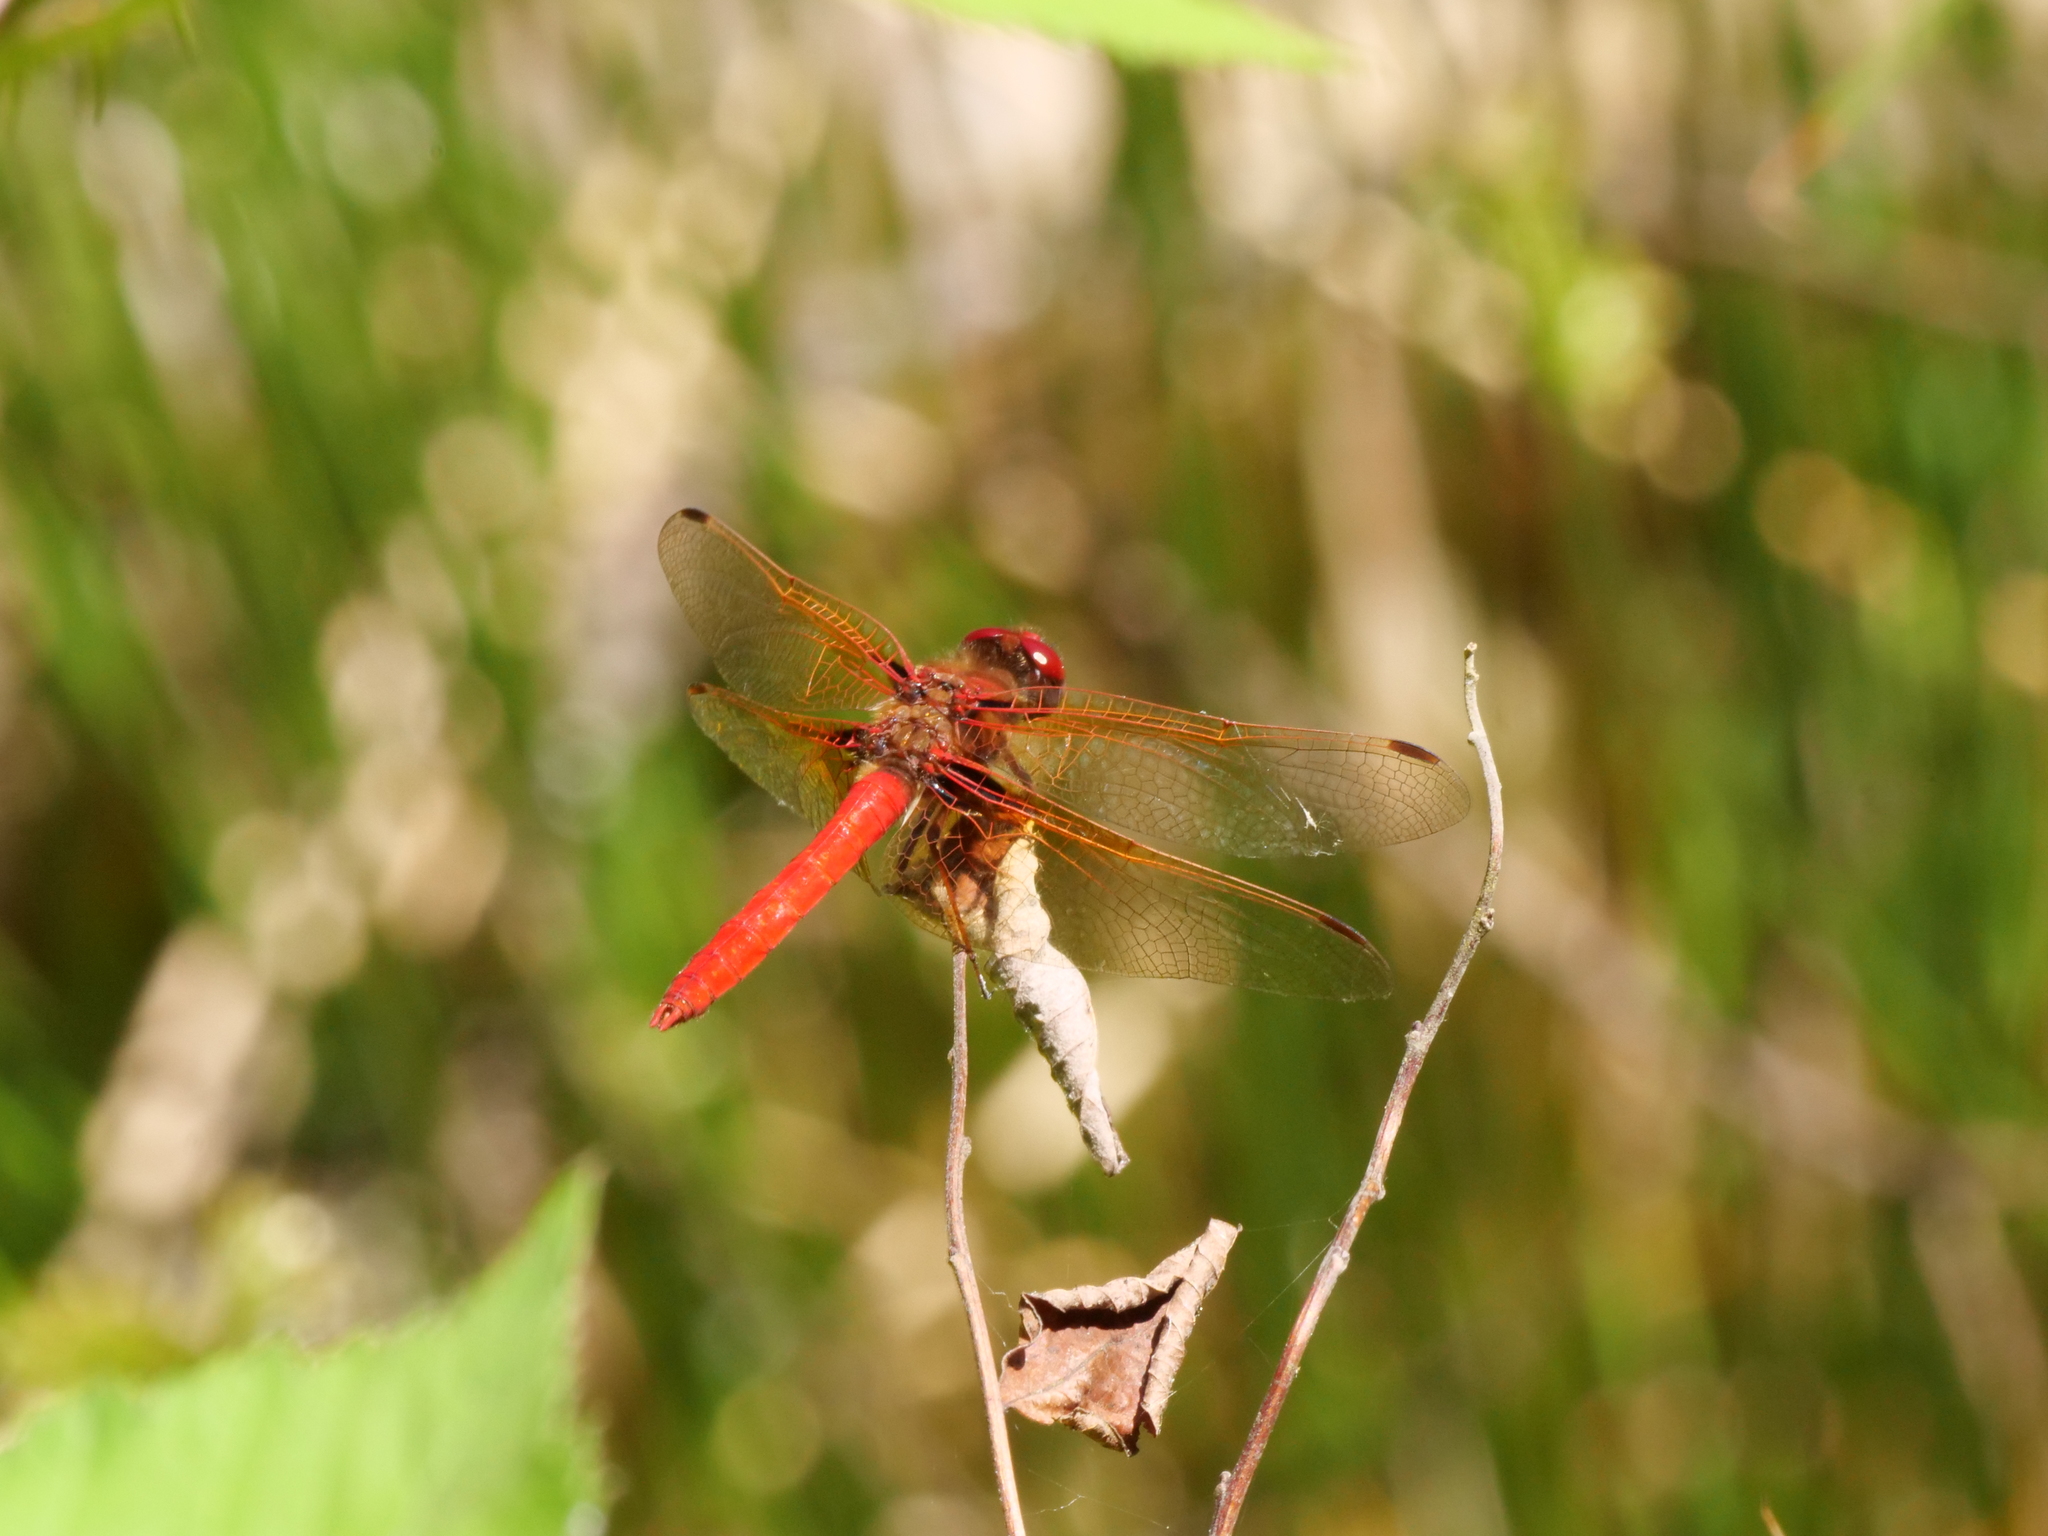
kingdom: Animalia
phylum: Arthropoda
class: Insecta
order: Odonata
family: Libellulidae
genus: Sympetrum
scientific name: Sympetrum illotum
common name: Cardinal meadowhawk
